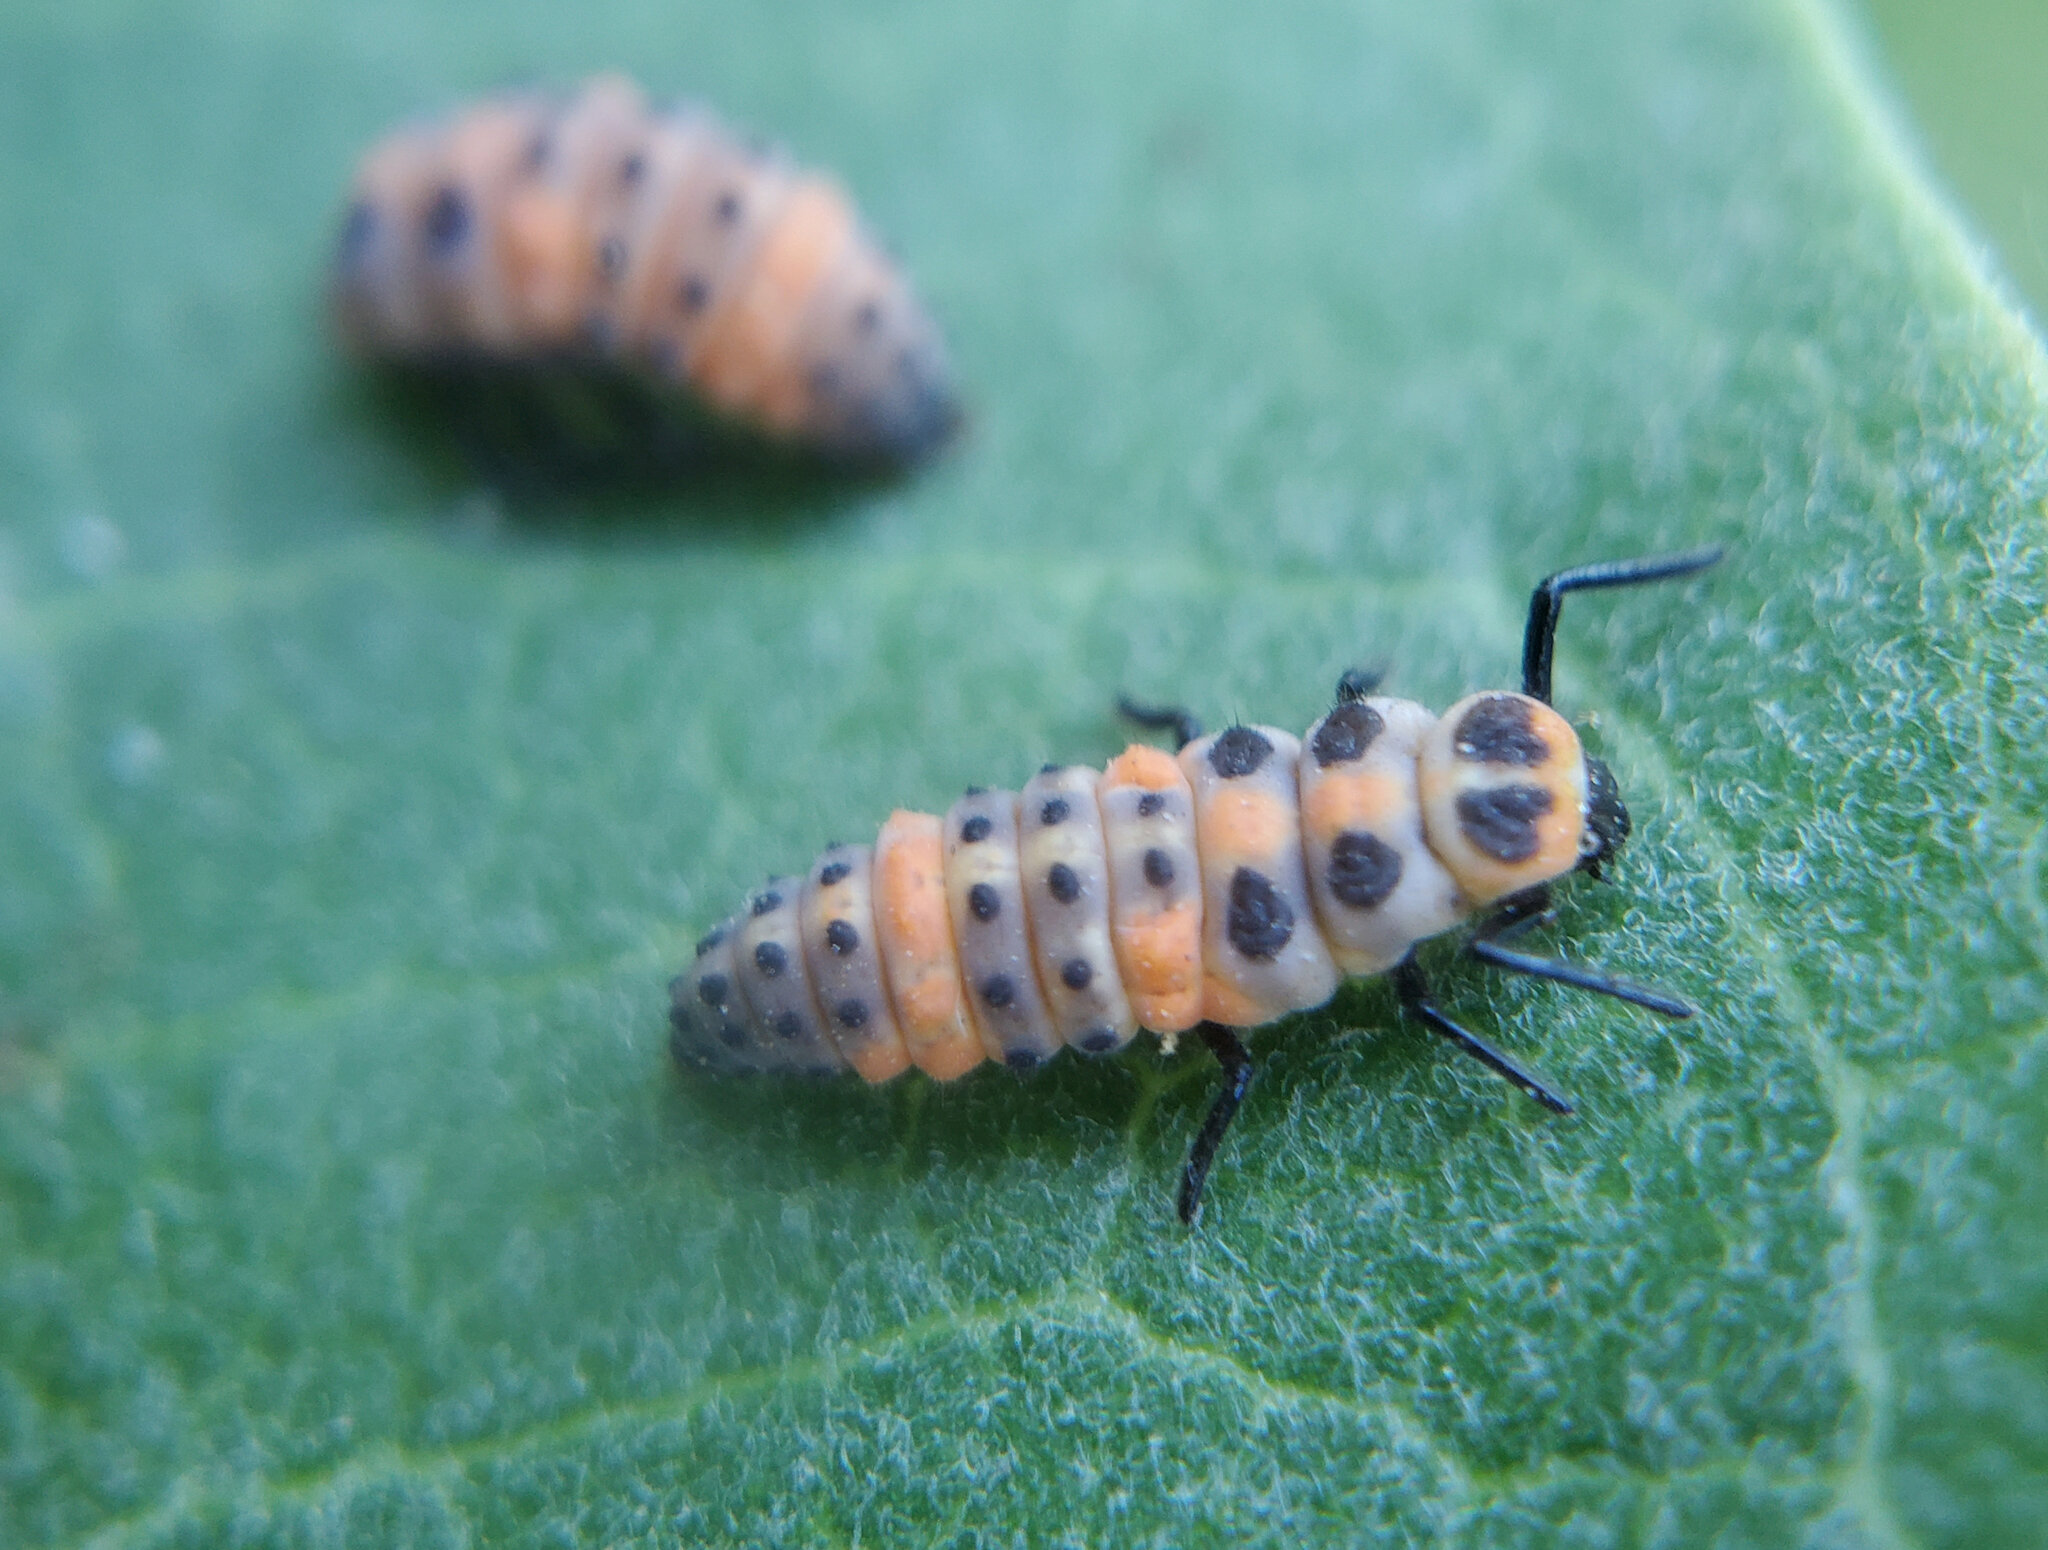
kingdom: Animalia
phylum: Arthropoda
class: Insecta
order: Coleoptera
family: Coccinellidae
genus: Cycloneda
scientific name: Cycloneda sanguinea
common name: Ladybird beetle
